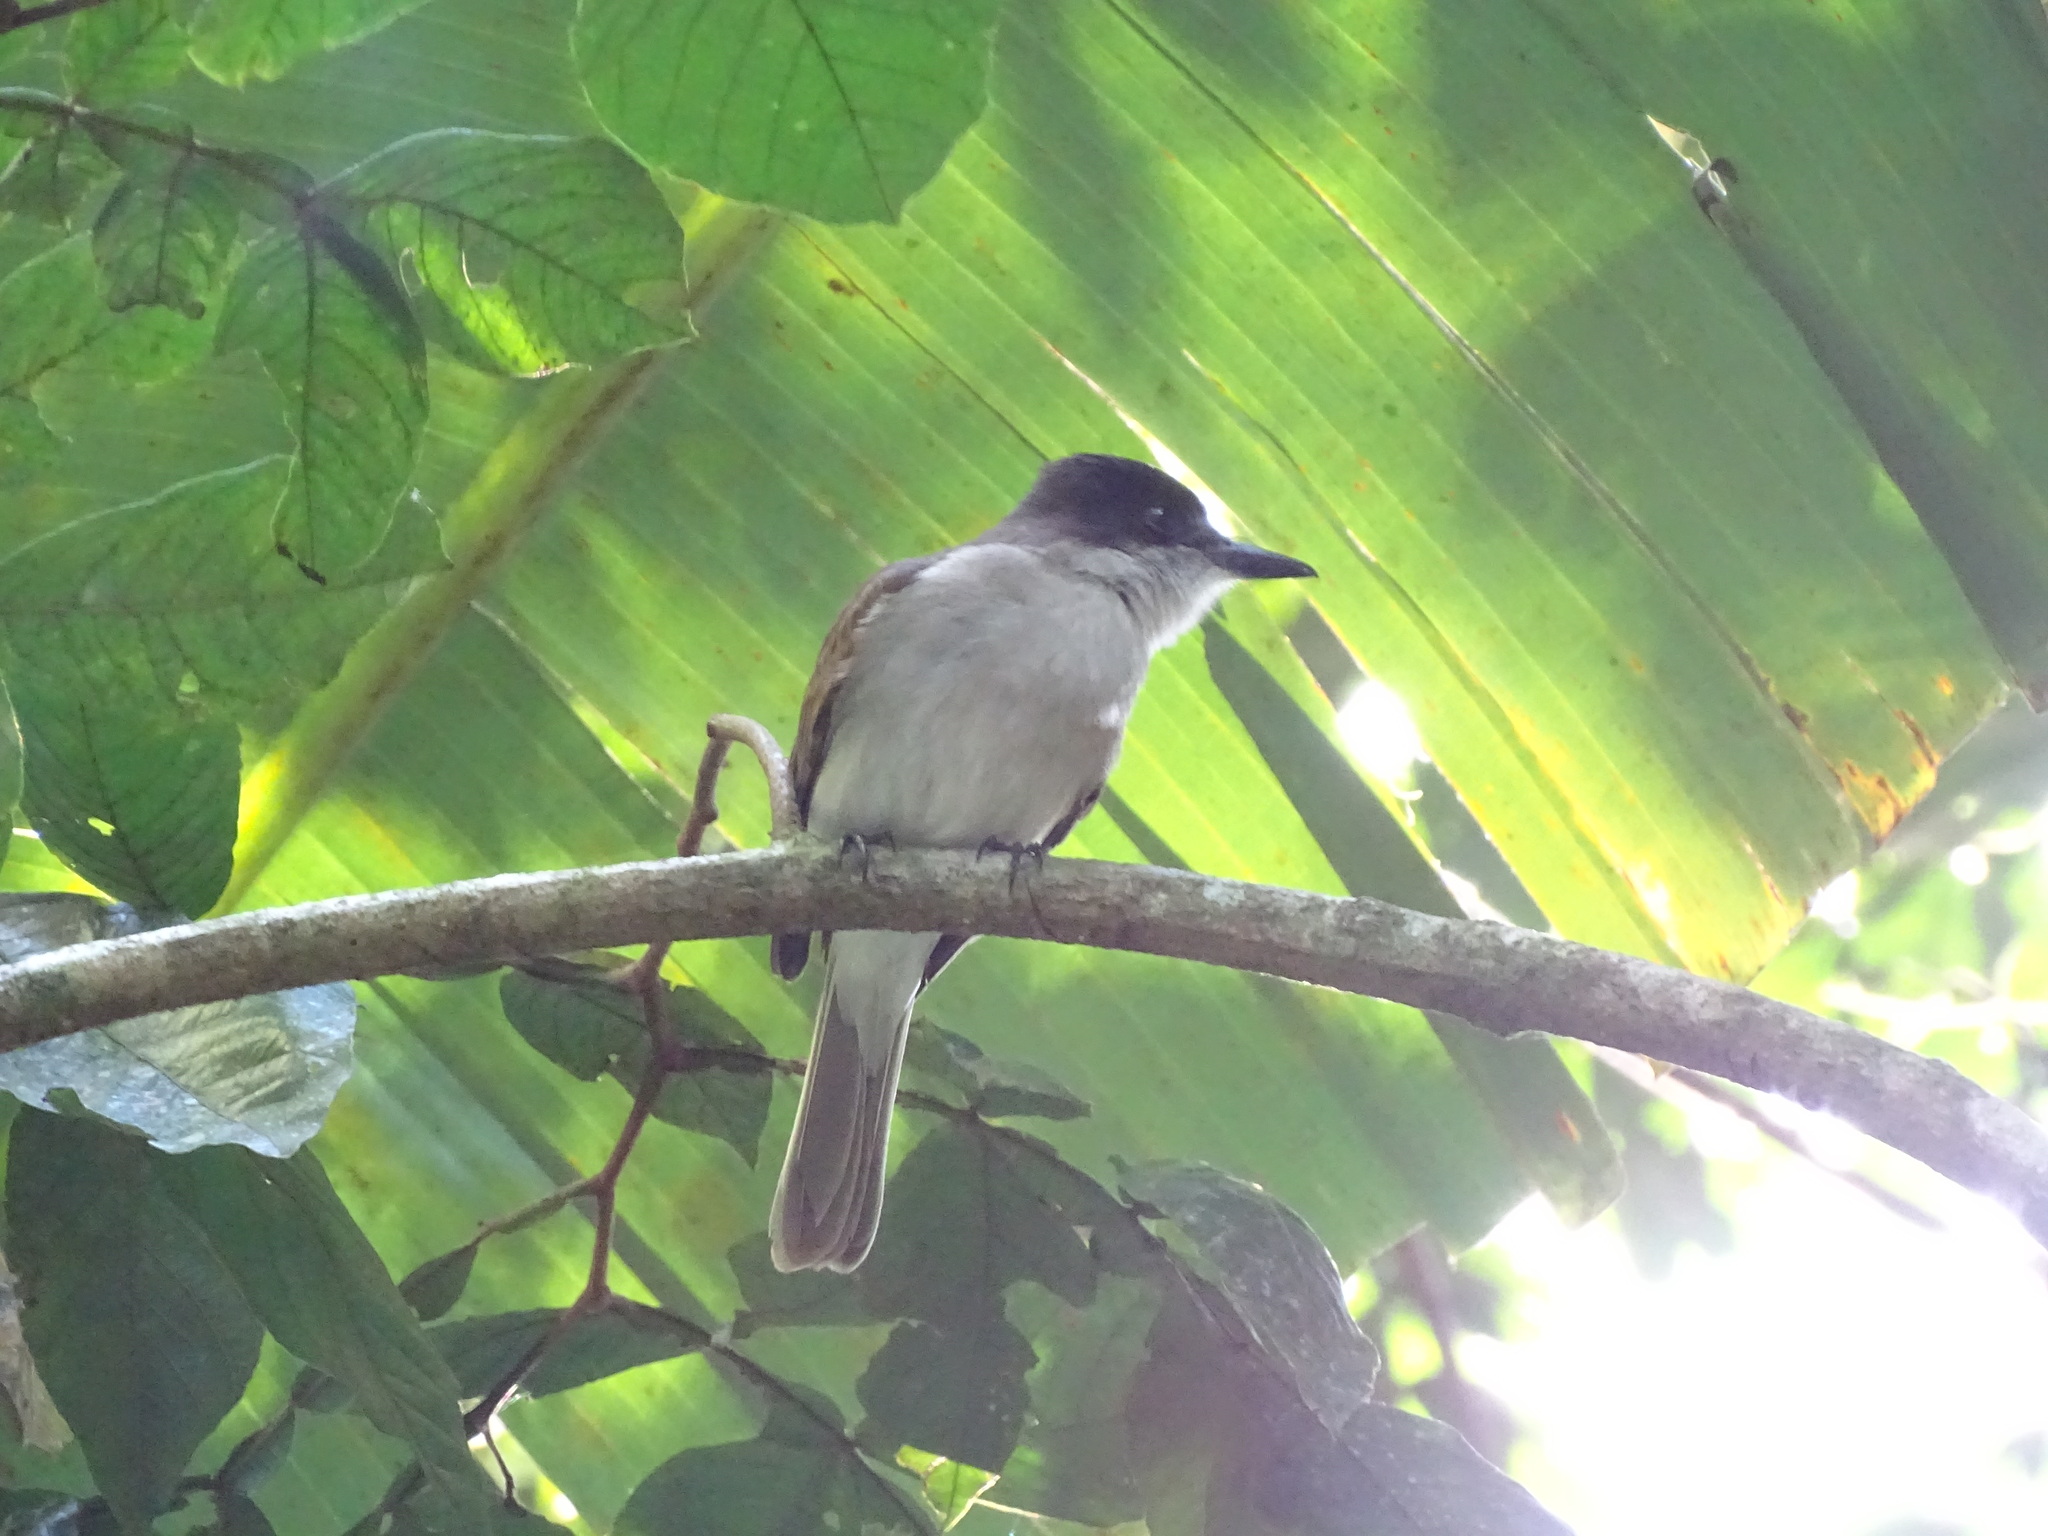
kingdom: Animalia
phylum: Chordata
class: Aves
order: Passeriformes
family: Tyrannidae
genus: Tyrannus
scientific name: Tyrannus caudifasciatus
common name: Loggerhead kingbird
